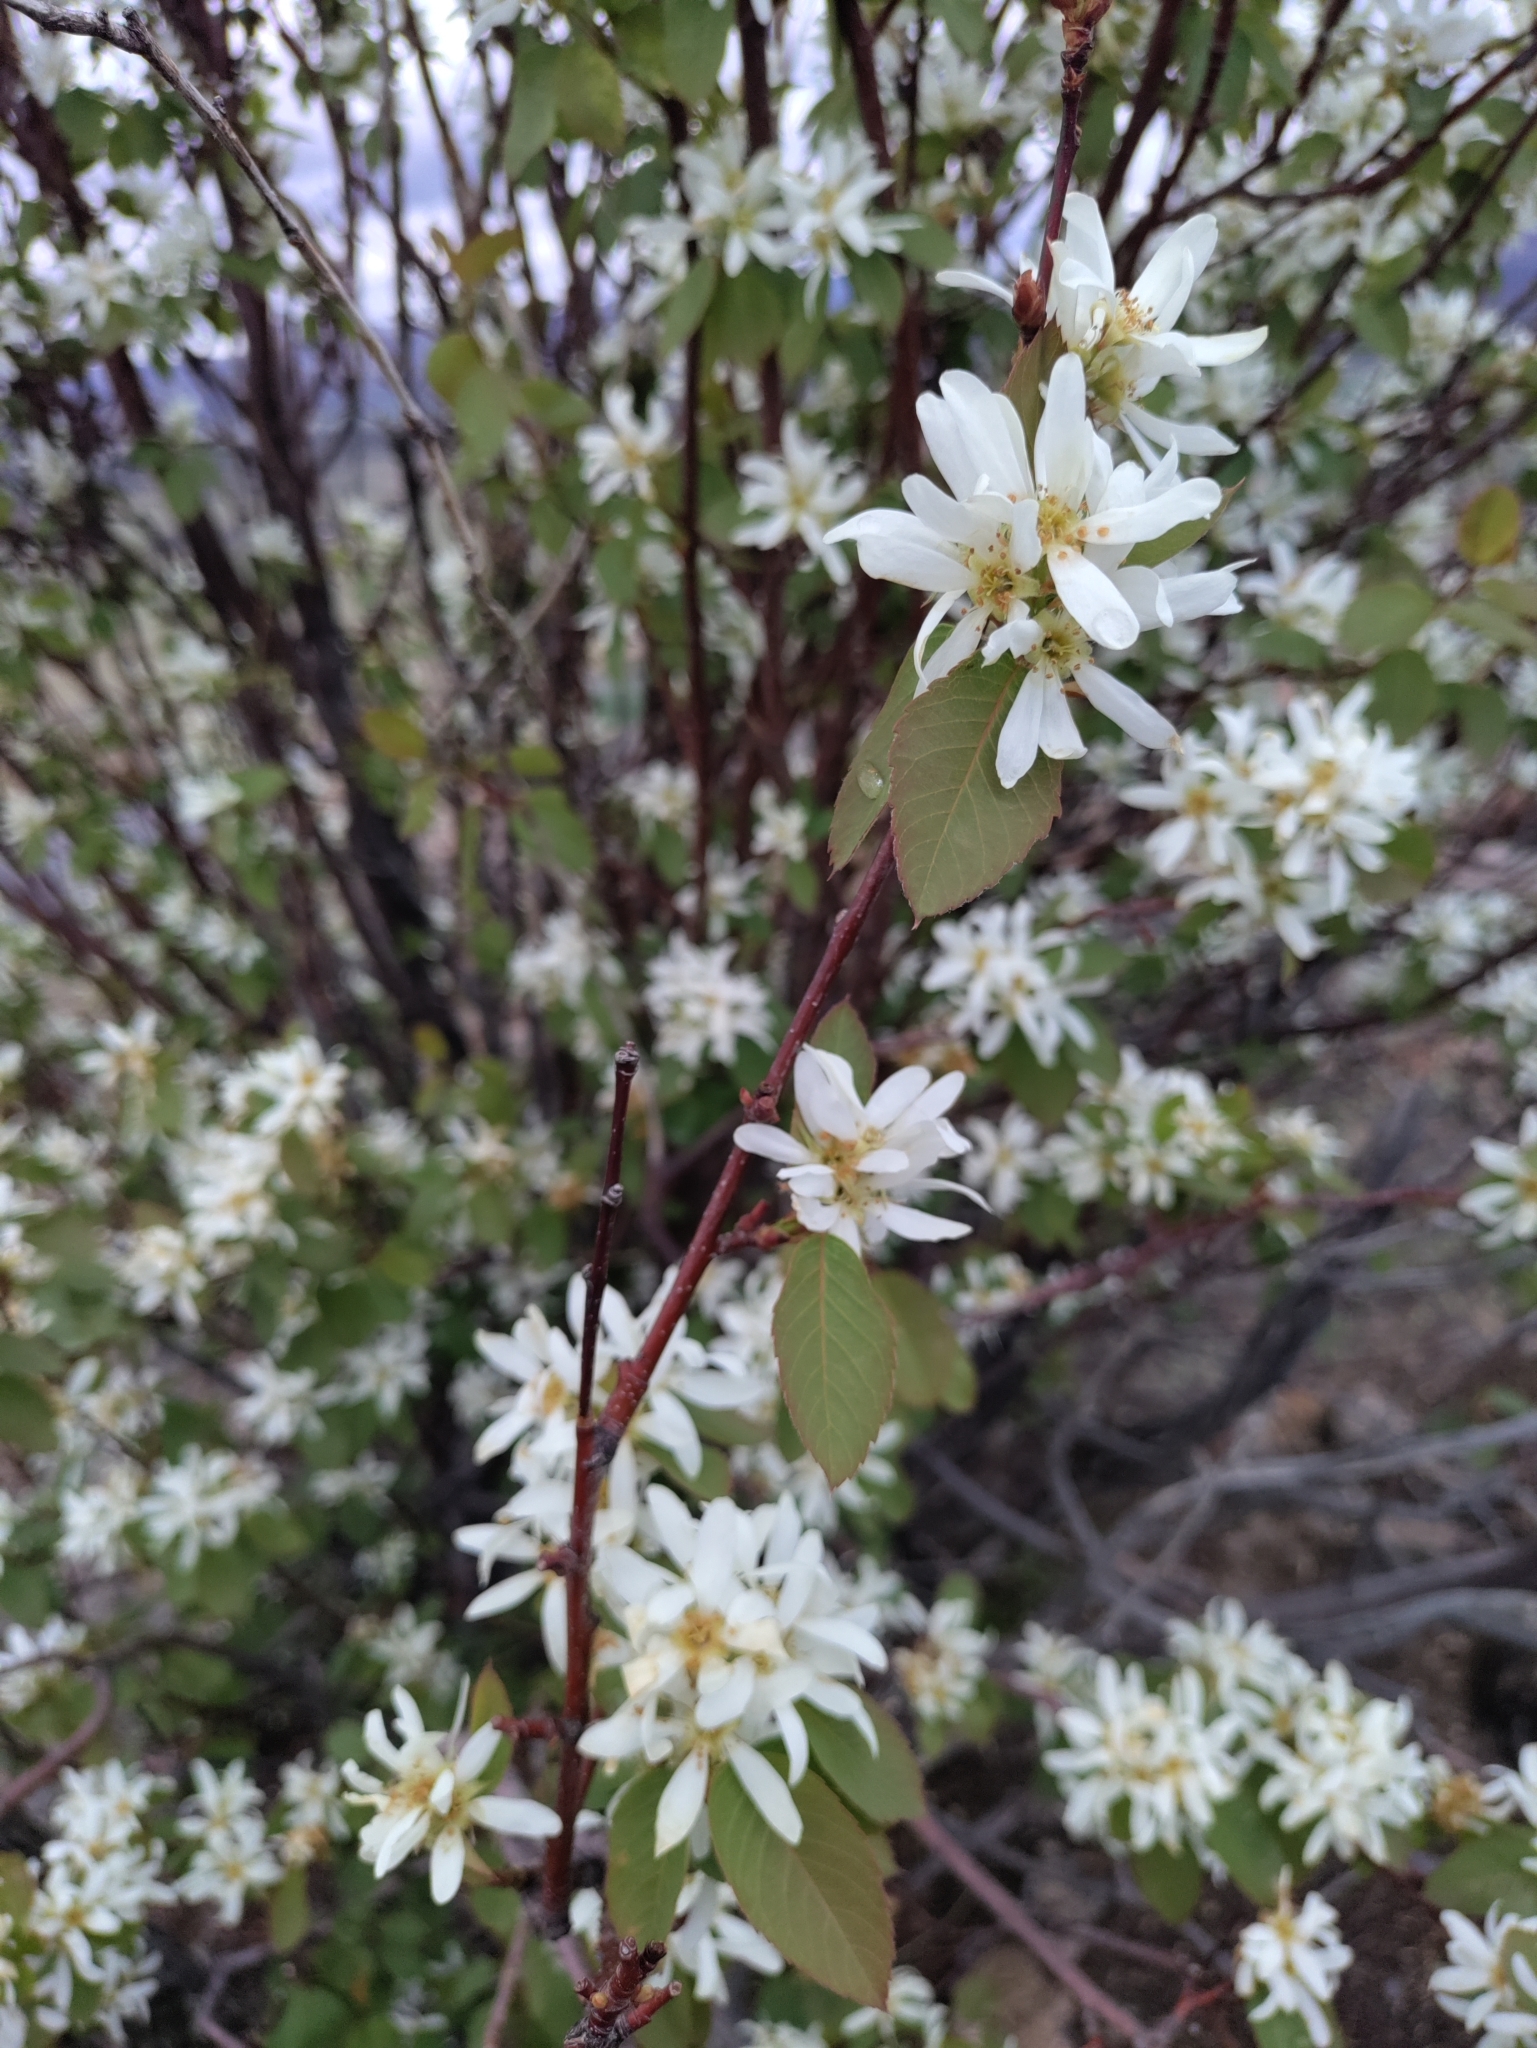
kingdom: Plantae
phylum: Tracheophyta
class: Magnoliopsida
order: Rosales
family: Rosaceae
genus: Amelanchier
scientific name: Amelanchier alnifolia
